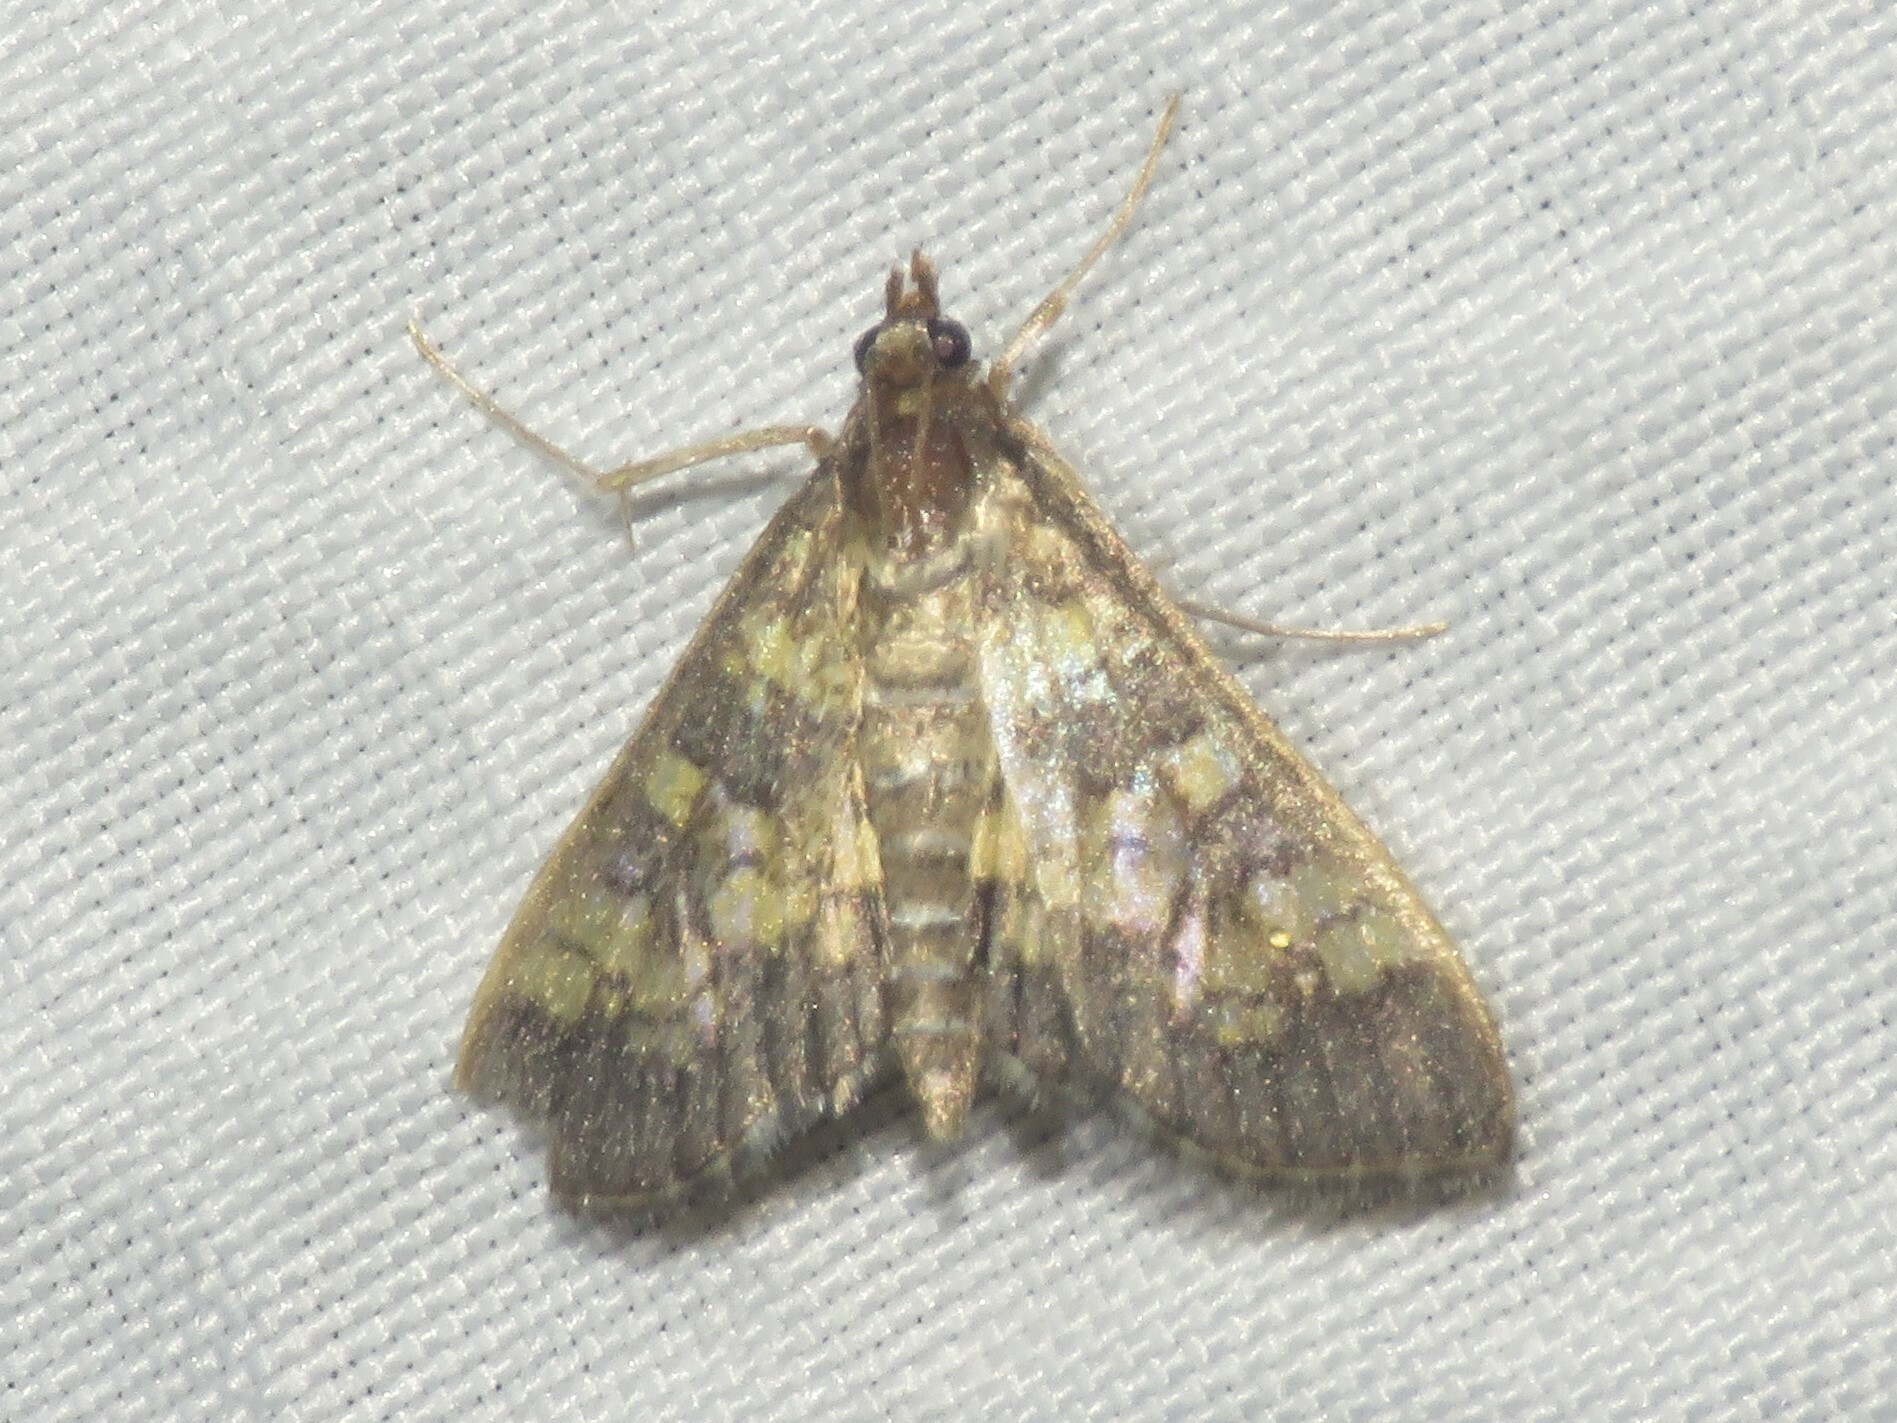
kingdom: Animalia
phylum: Arthropoda
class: Insecta
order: Lepidoptera
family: Crambidae
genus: Epipagis
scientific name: Epipagis adipaloides
